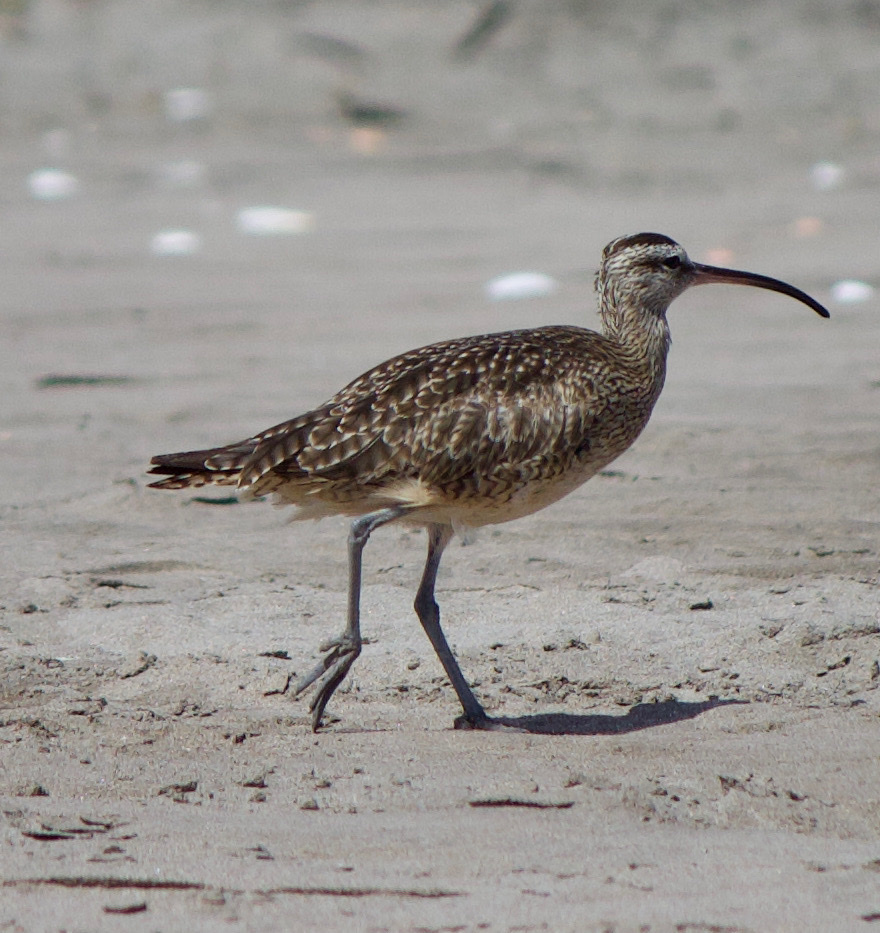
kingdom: Animalia
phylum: Chordata
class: Aves
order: Charadriiformes
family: Scolopacidae
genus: Numenius
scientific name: Numenius phaeopus
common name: Whimbrel
